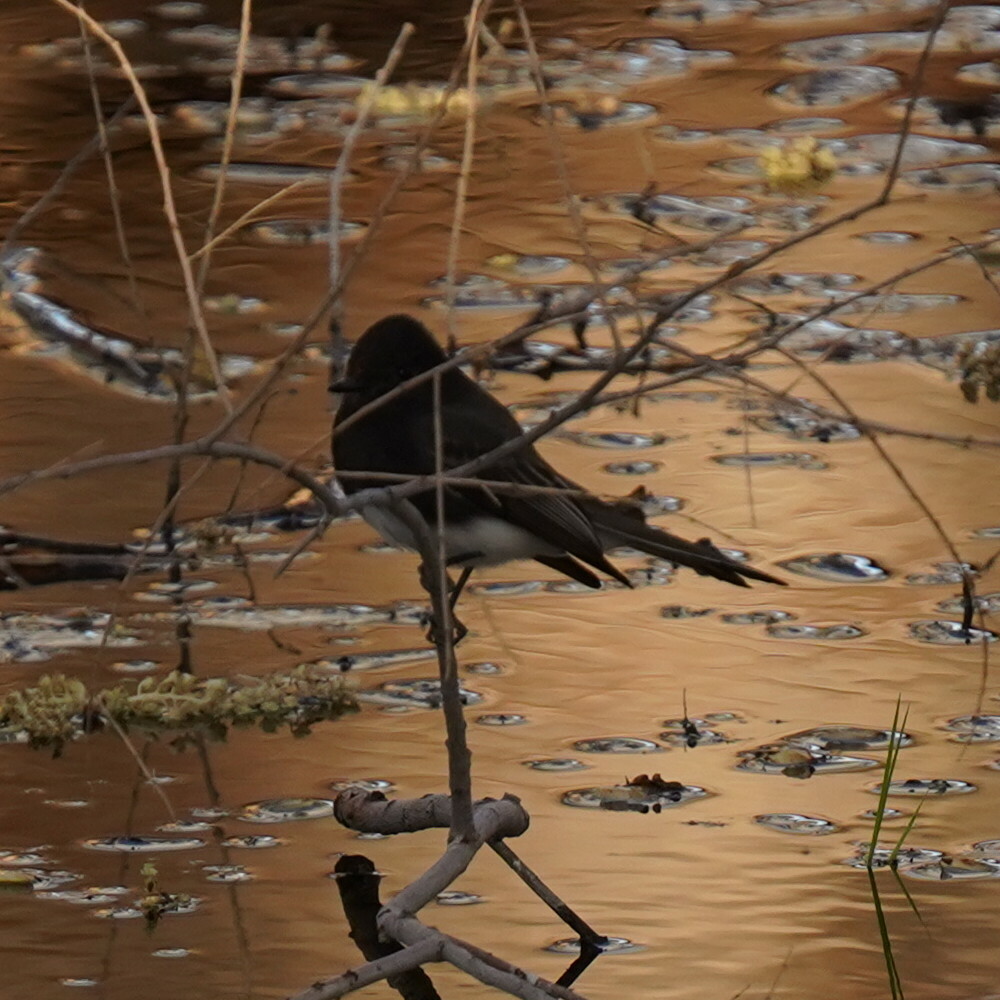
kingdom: Animalia
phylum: Chordata
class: Aves
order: Passeriformes
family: Tyrannidae
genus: Sayornis
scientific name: Sayornis nigricans
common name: Black phoebe
